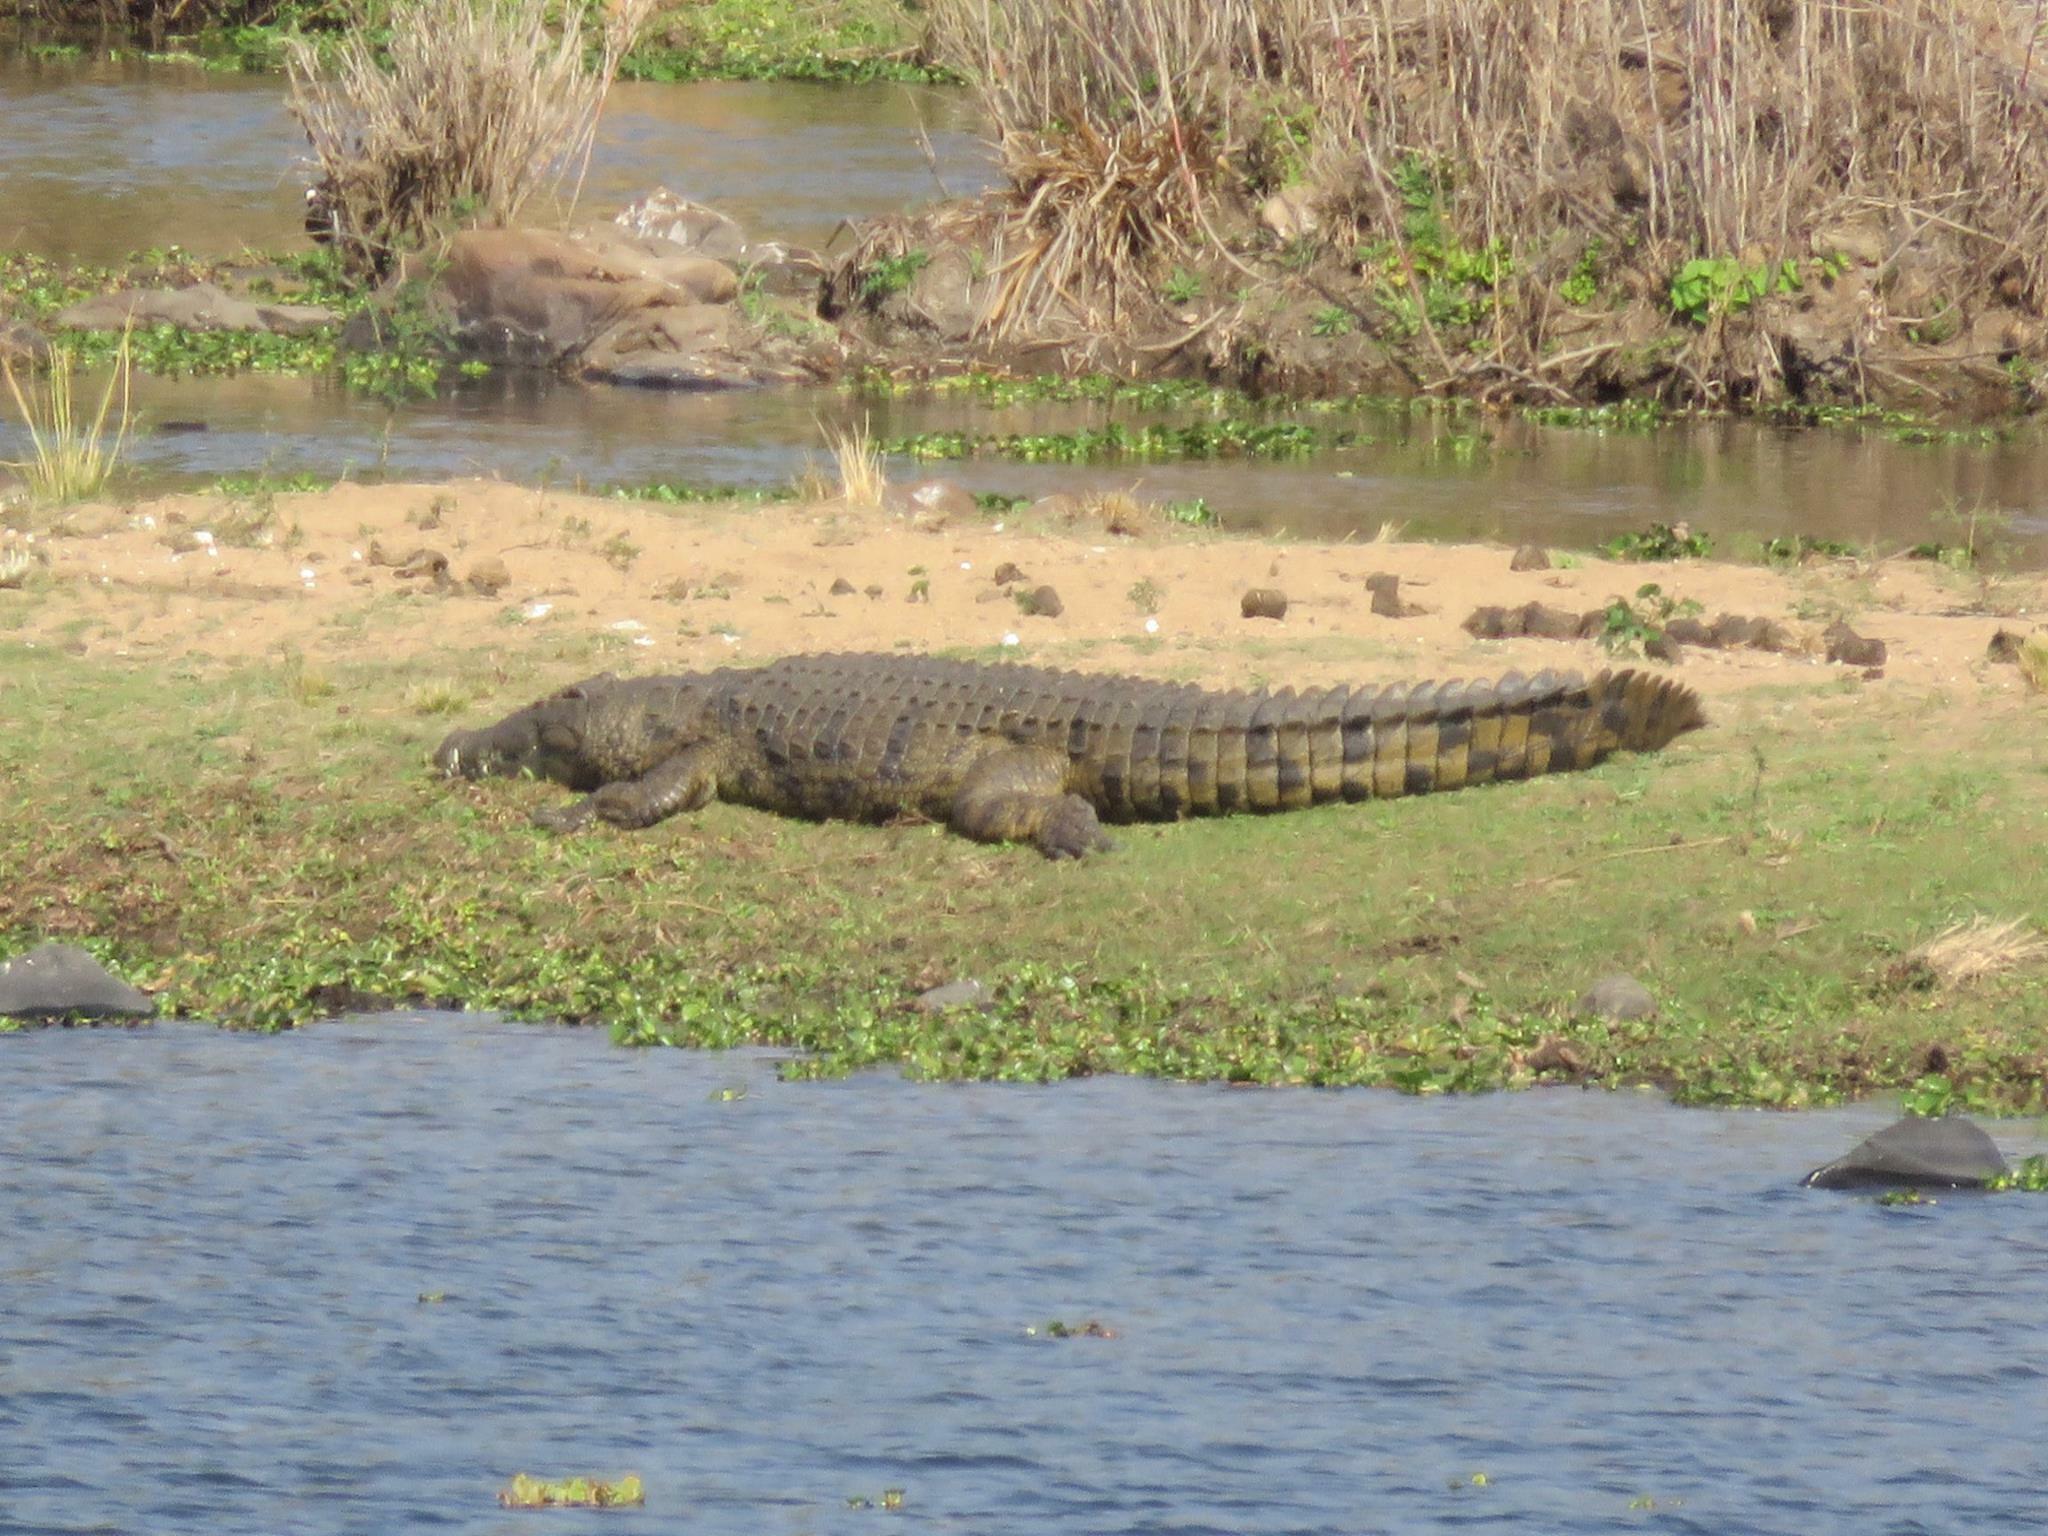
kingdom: Animalia
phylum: Chordata
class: Crocodylia
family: Crocodylidae
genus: Crocodylus
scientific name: Crocodylus niloticus
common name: Nile crocodile
